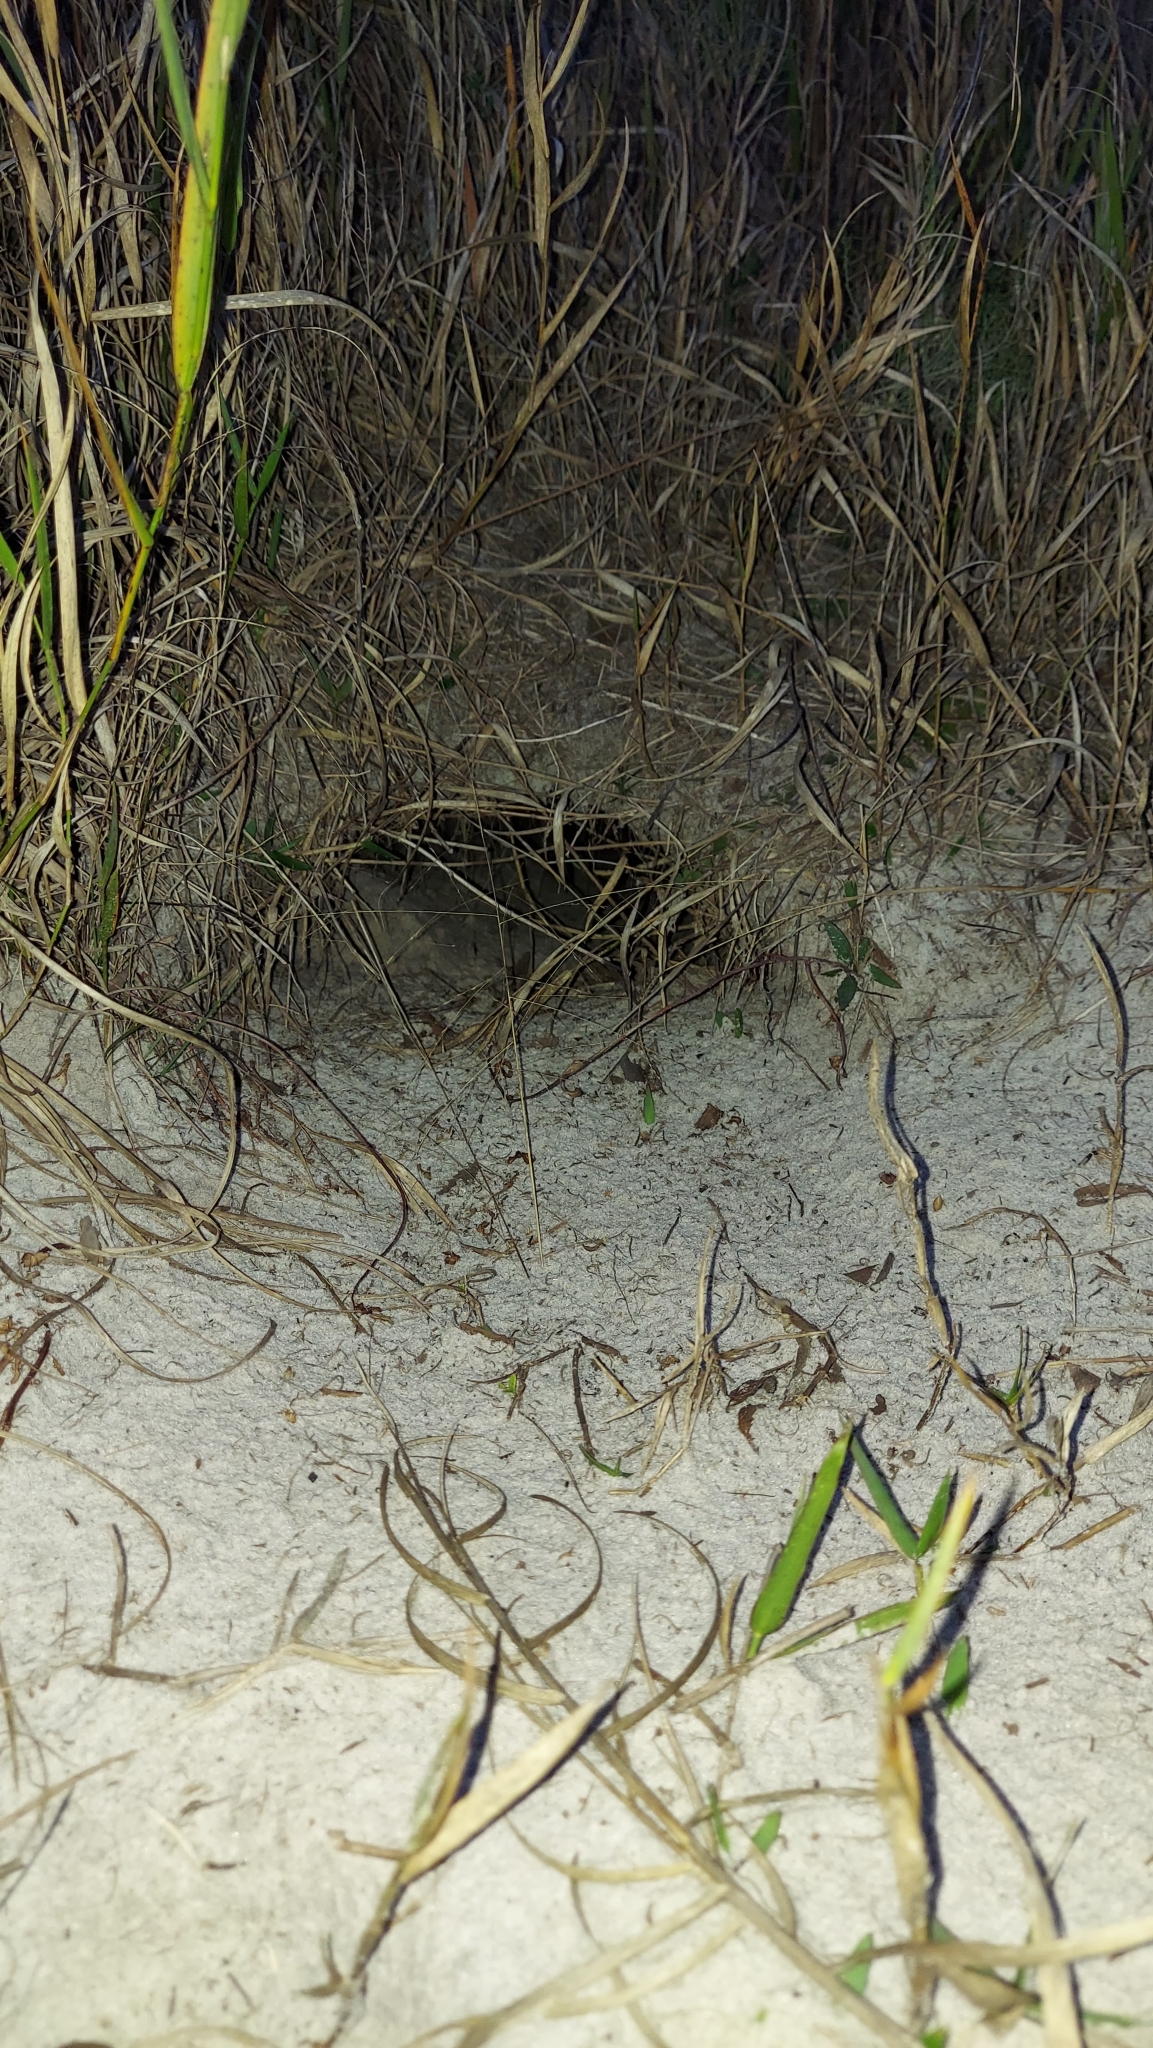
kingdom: Animalia
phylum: Chordata
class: Testudines
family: Testudinidae
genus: Gopherus
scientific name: Gopherus polyphemus
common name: Florida gopher tortoise
